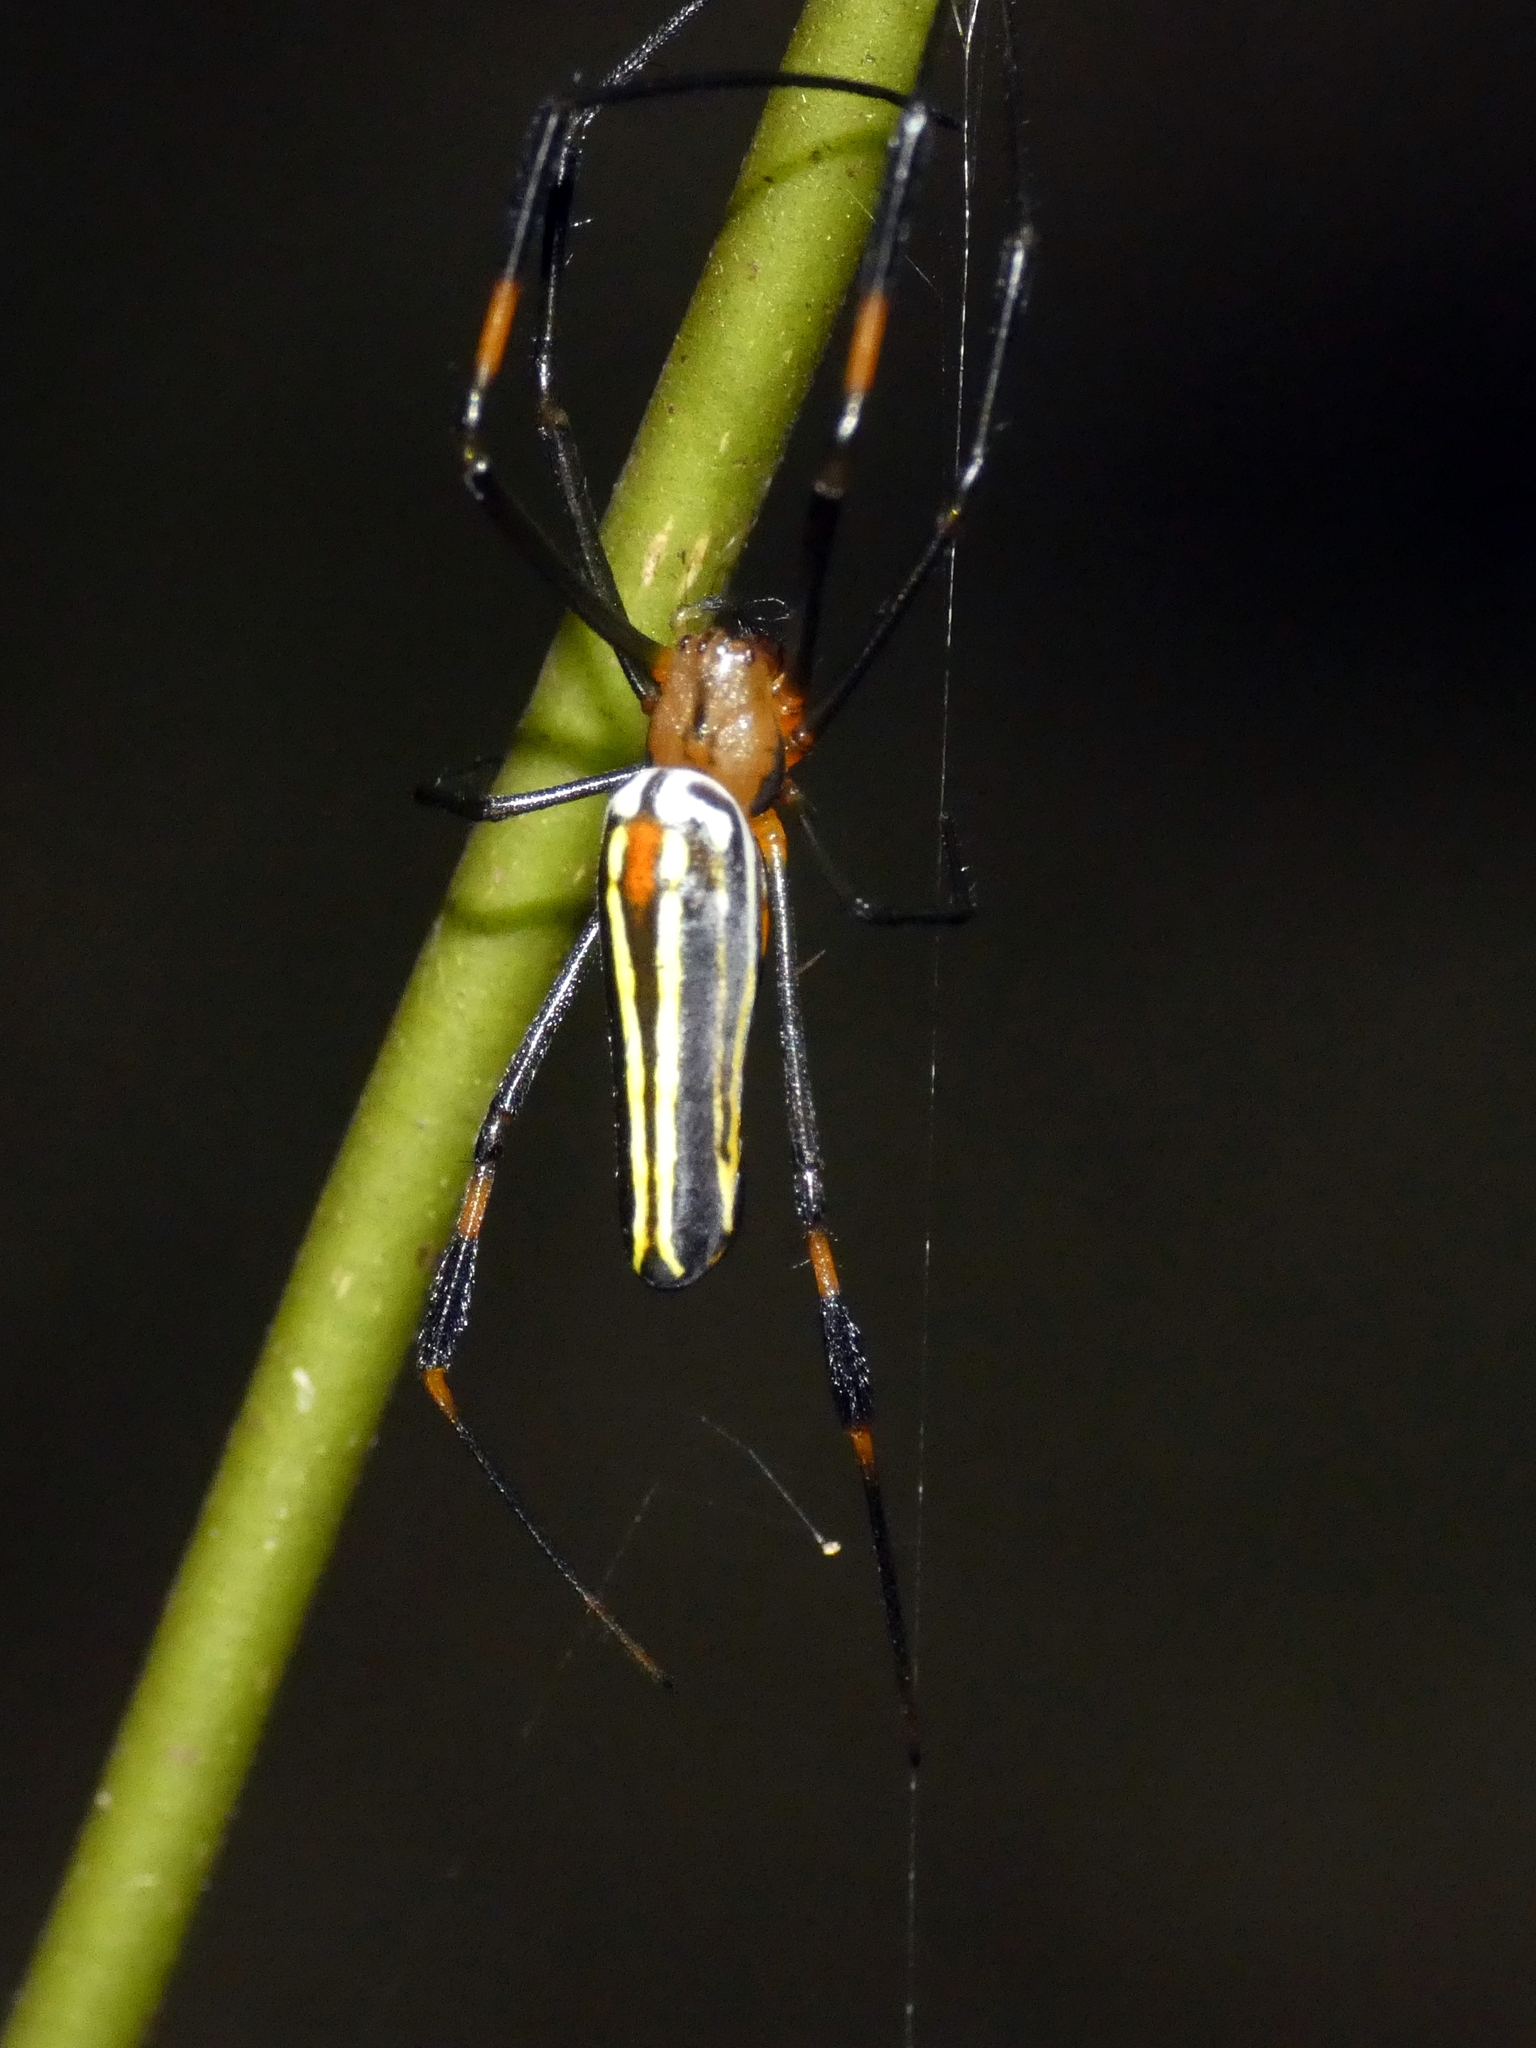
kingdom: Animalia
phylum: Arthropoda
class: Arachnida
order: Araneae
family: Araneidae
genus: Nephila
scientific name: Nephila pilipes
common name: Giant golden orb weaver
